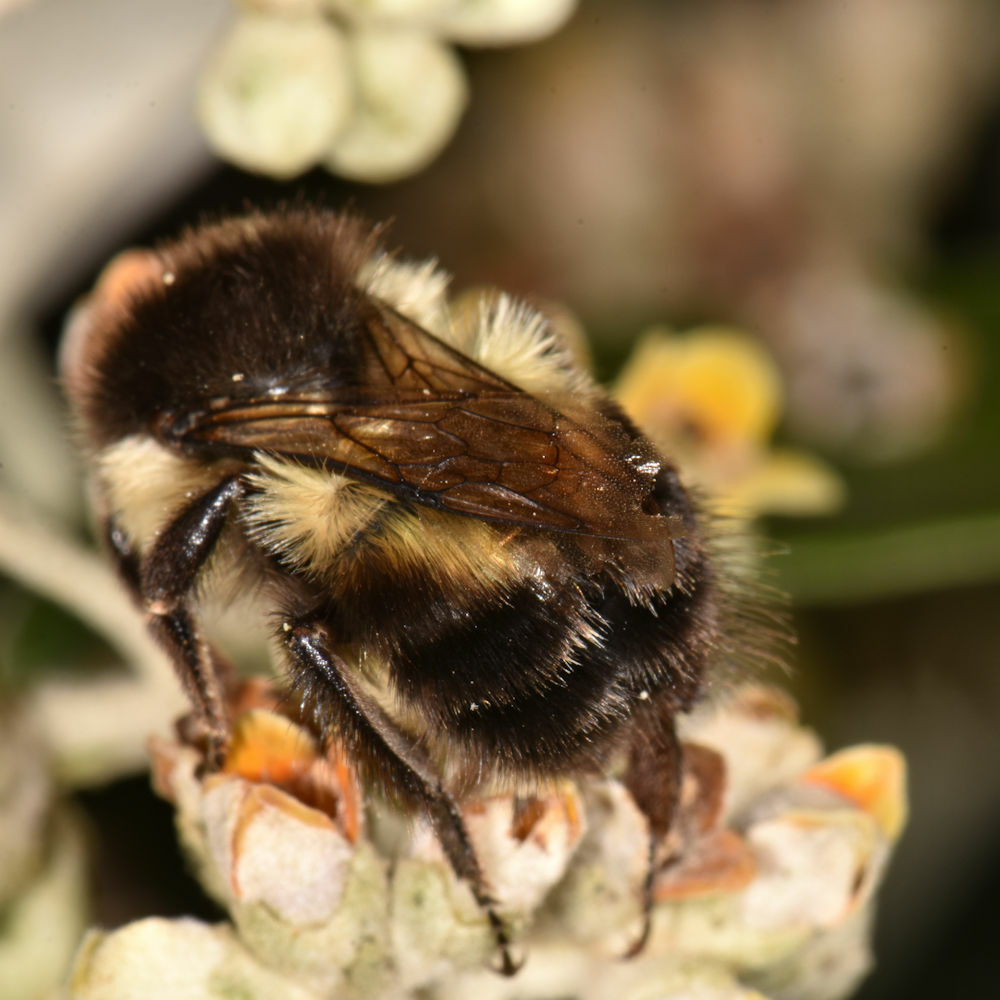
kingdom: Animalia
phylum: Arthropoda
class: Insecta
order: Hymenoptera
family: Apidae
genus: Bombus
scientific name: Bombus ephippiatus
